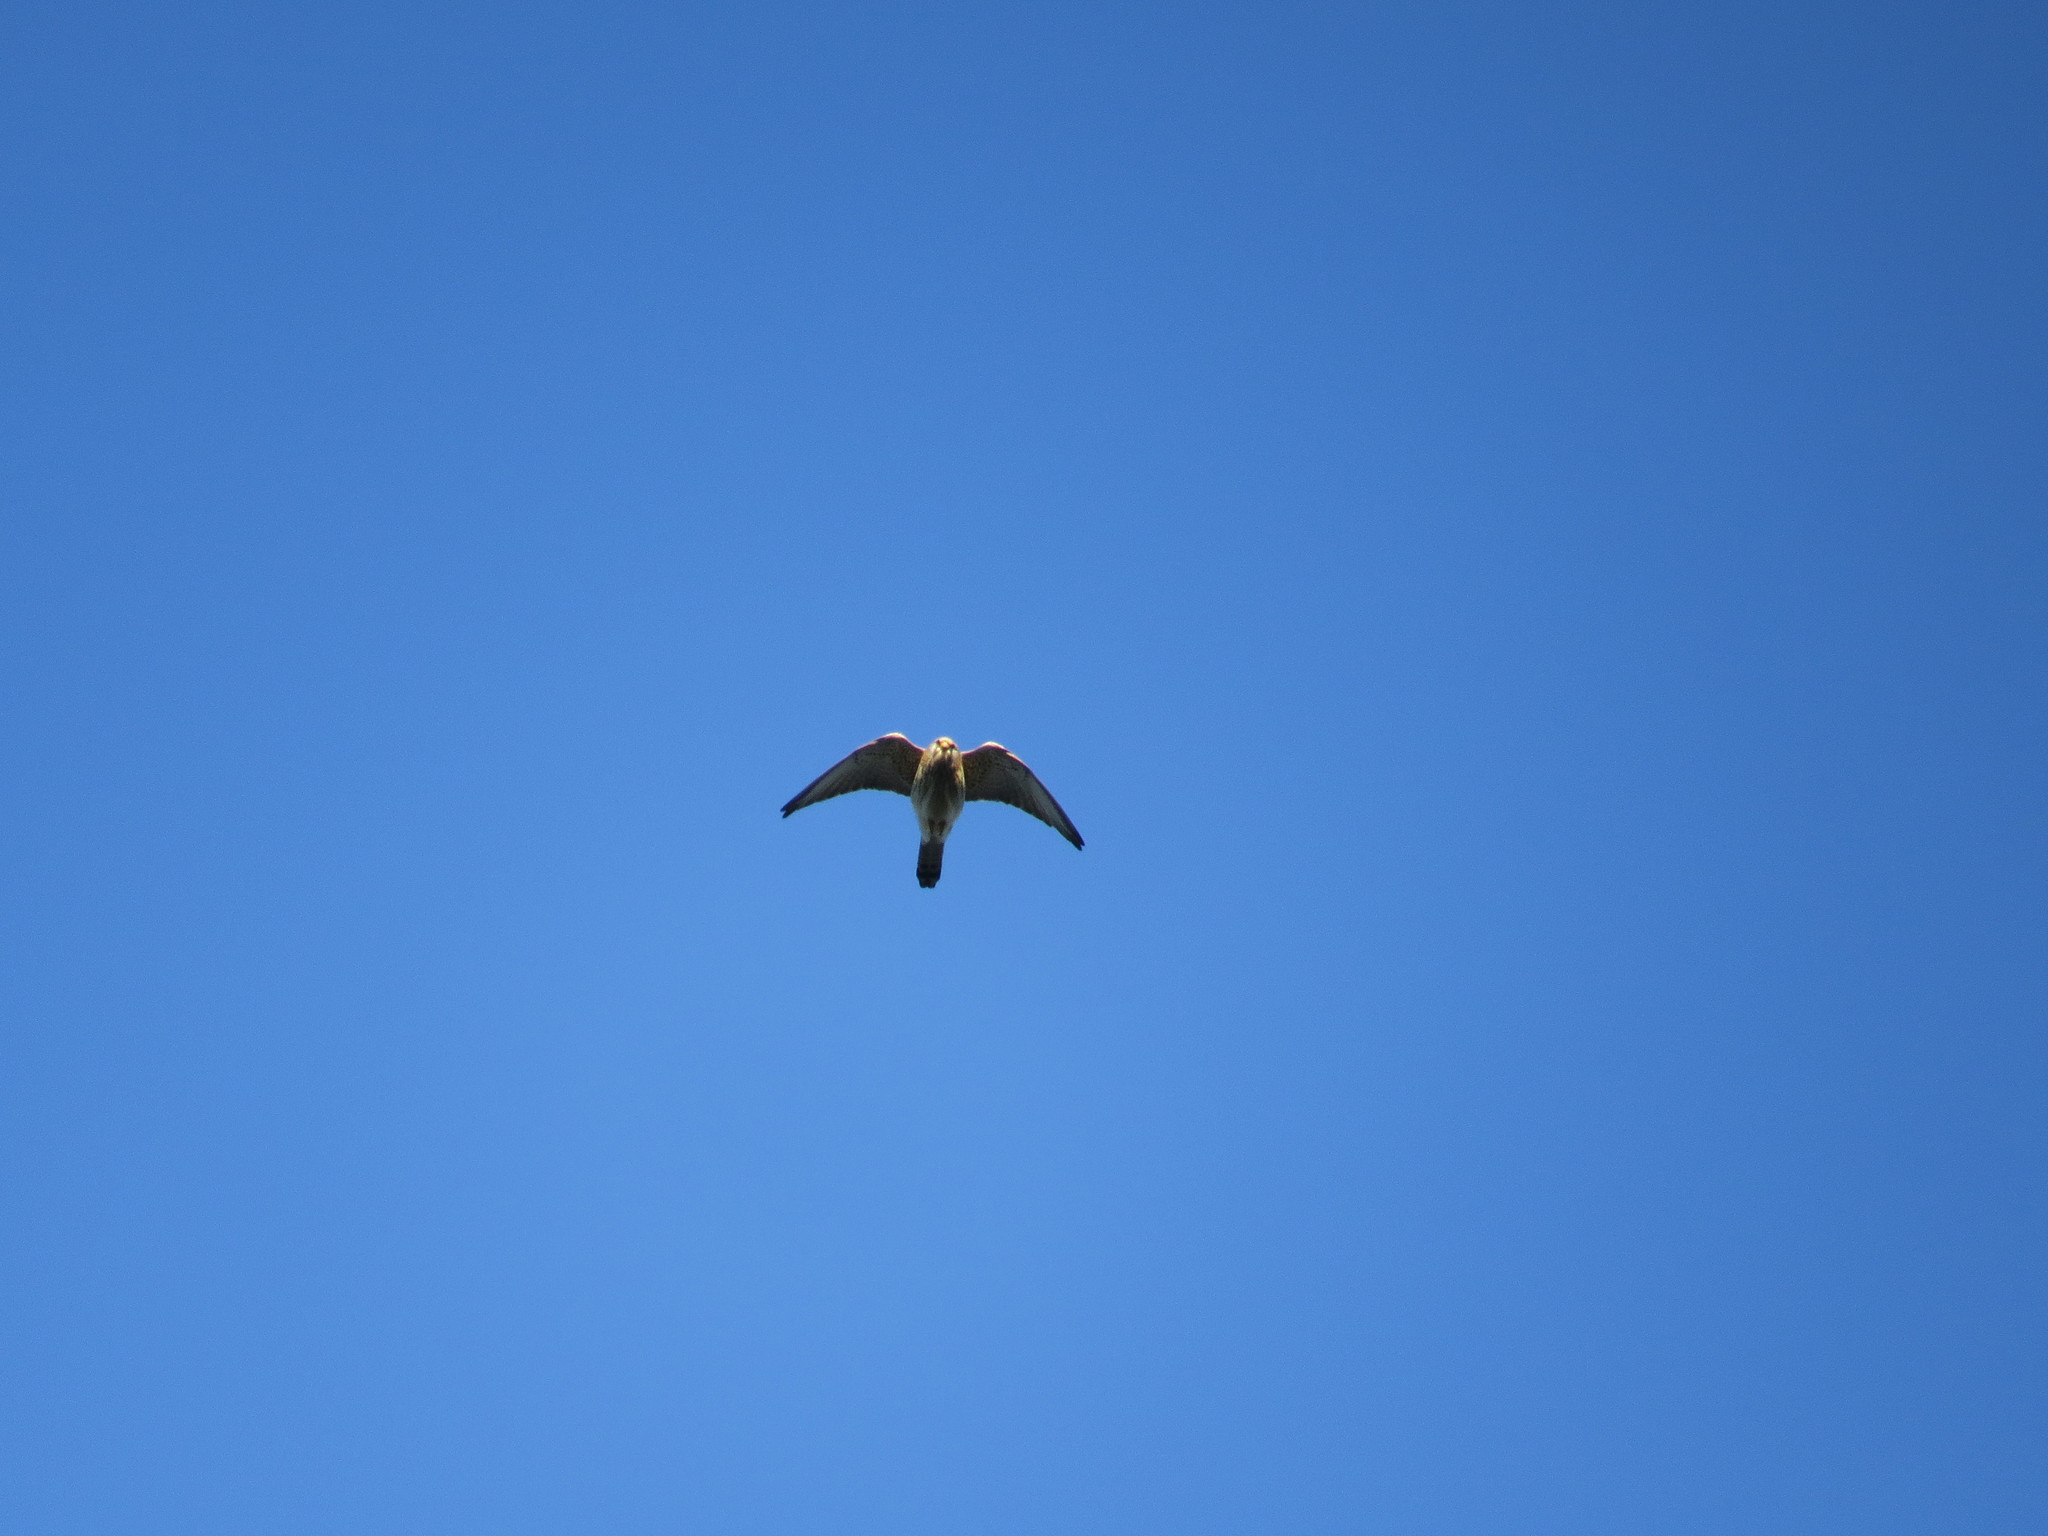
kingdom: Animalia
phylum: Chordata
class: Aves
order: Falconiformes
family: Falconidae
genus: Falco
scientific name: Falco naumanni
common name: Lesser kestrel
